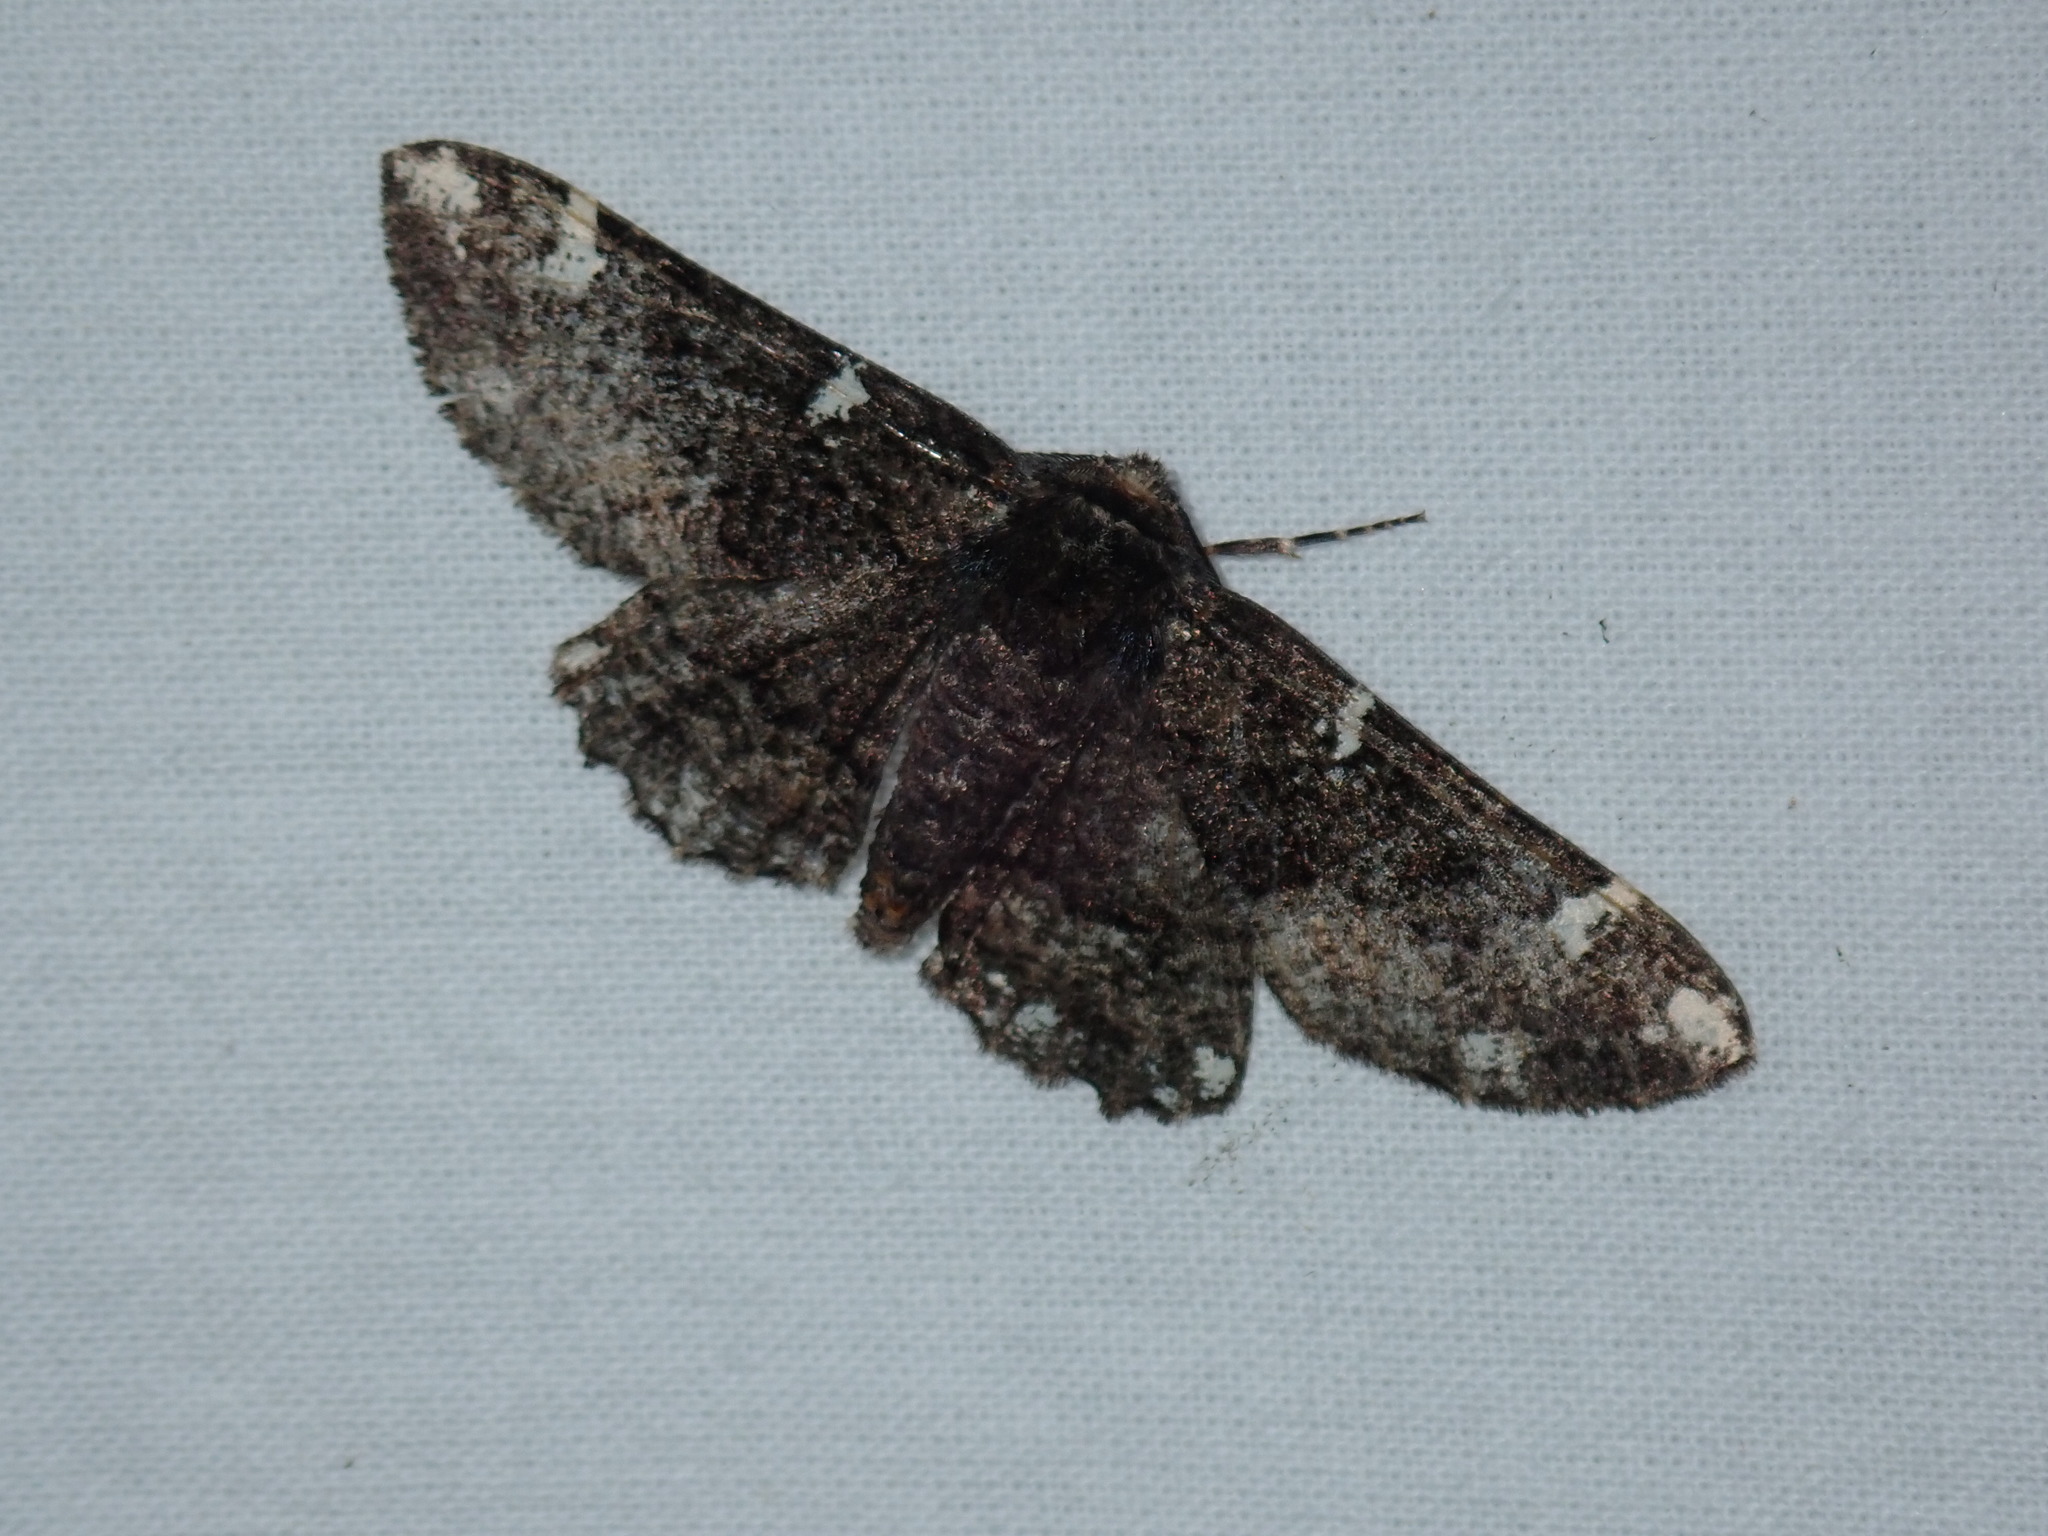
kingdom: Animalia
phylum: Arthropoda
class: Insecta
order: Lepidoptera
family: Geometridae
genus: Phaeoura
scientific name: Phaeoura quernaria
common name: Oak beauty
